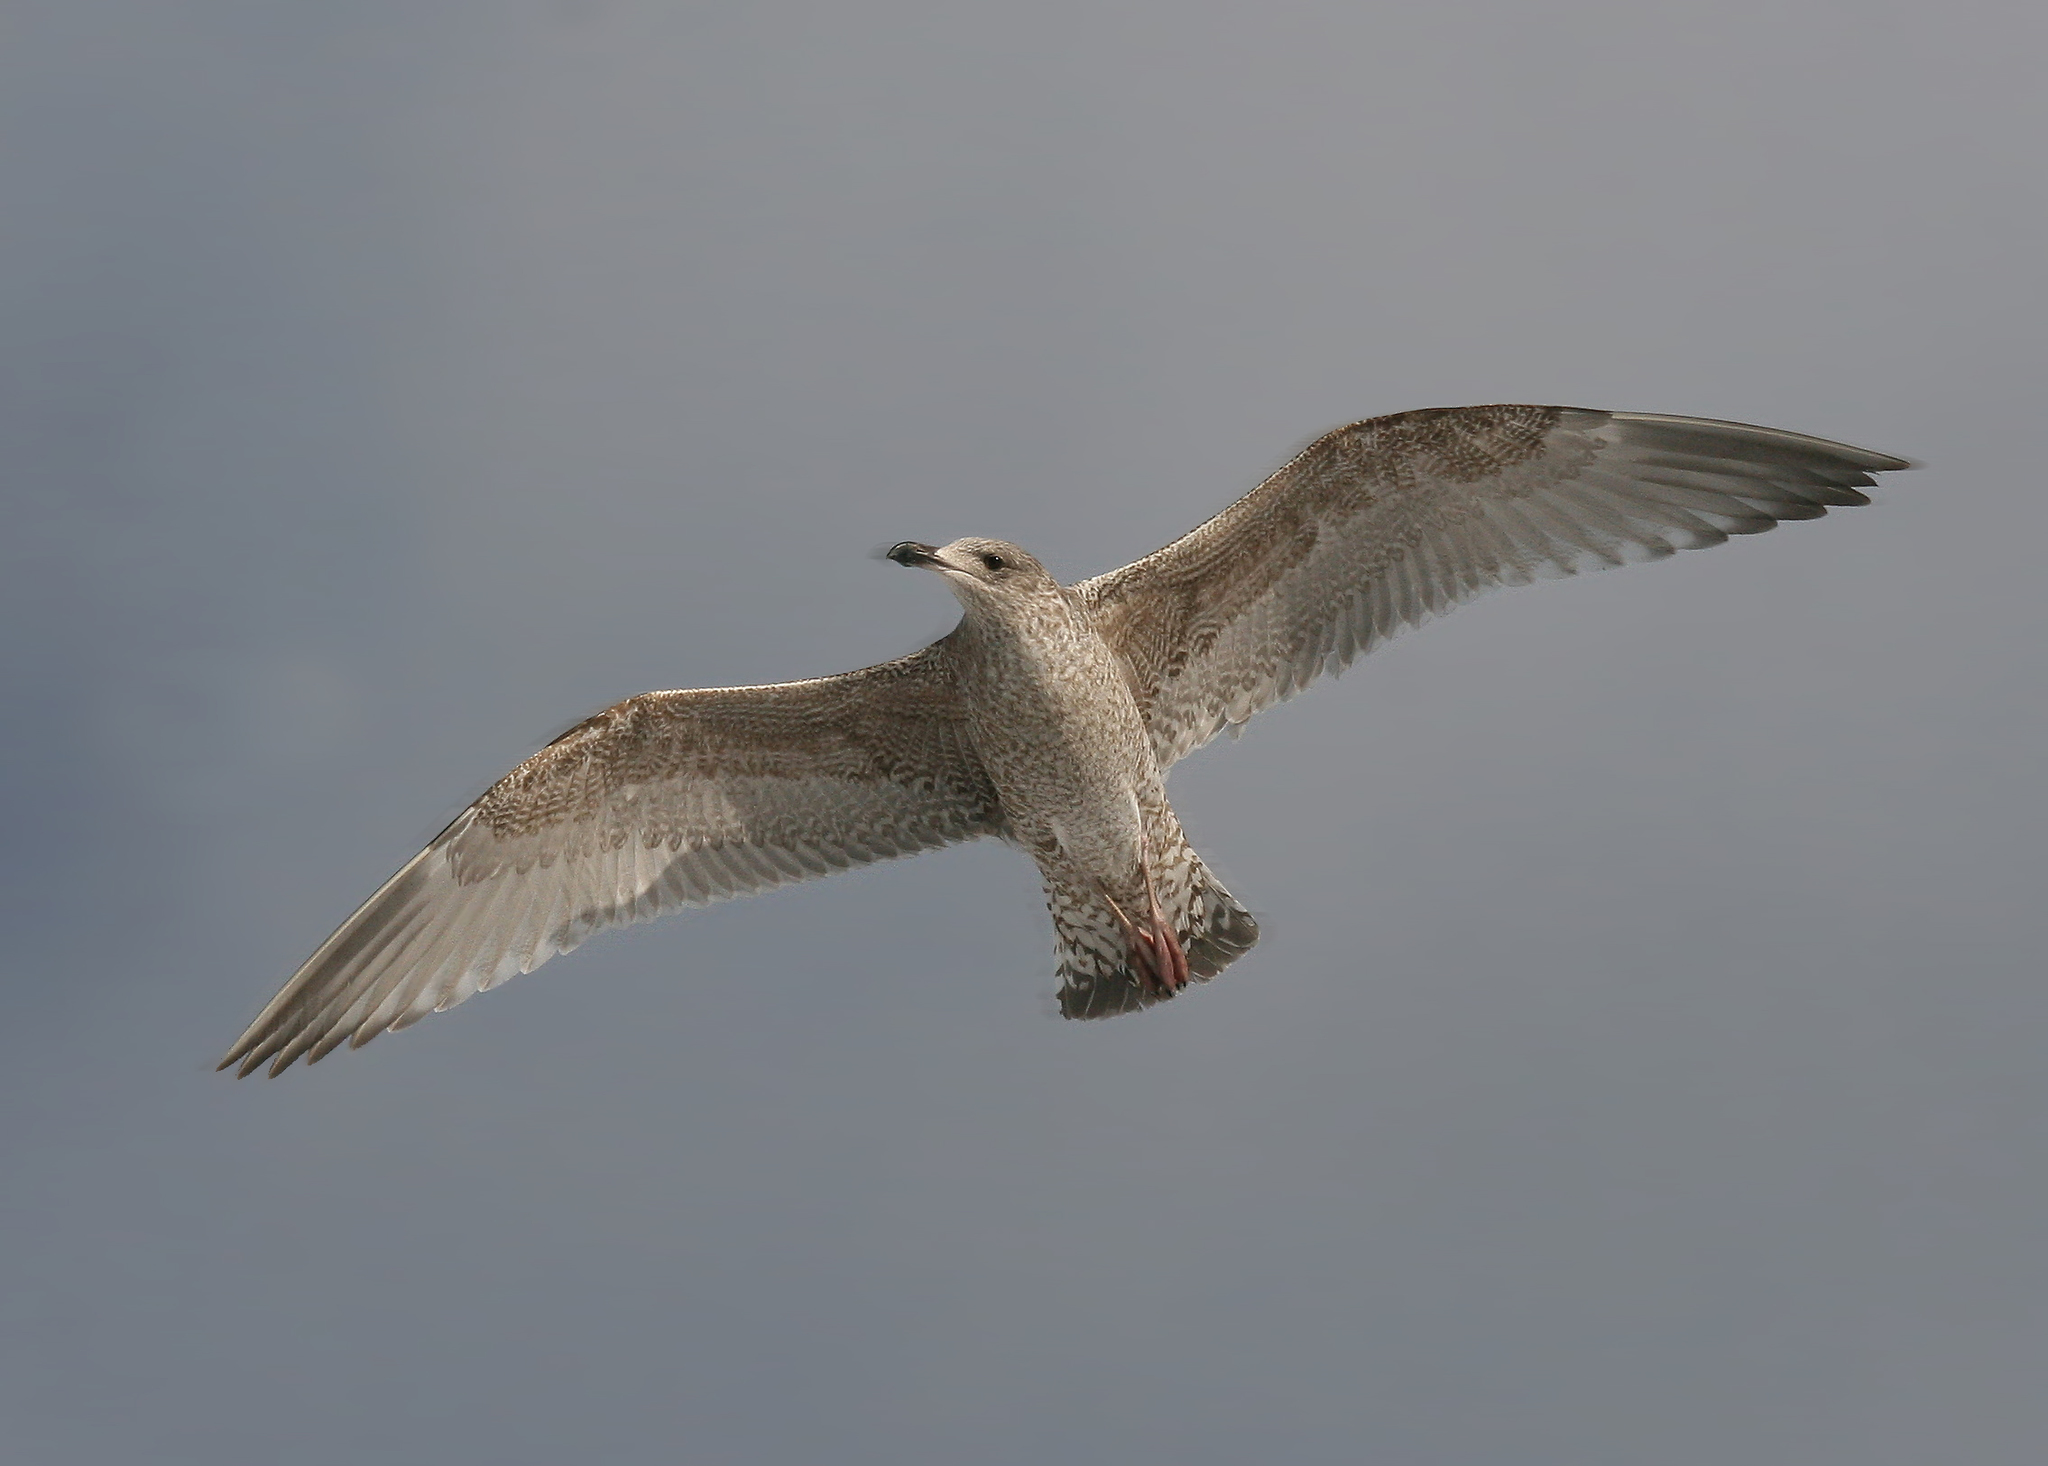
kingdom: Animalia
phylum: Chordata
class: Aves
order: Charadriiformes
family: Laridae
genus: Larus
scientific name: Larus argentatus
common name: Herring gull
